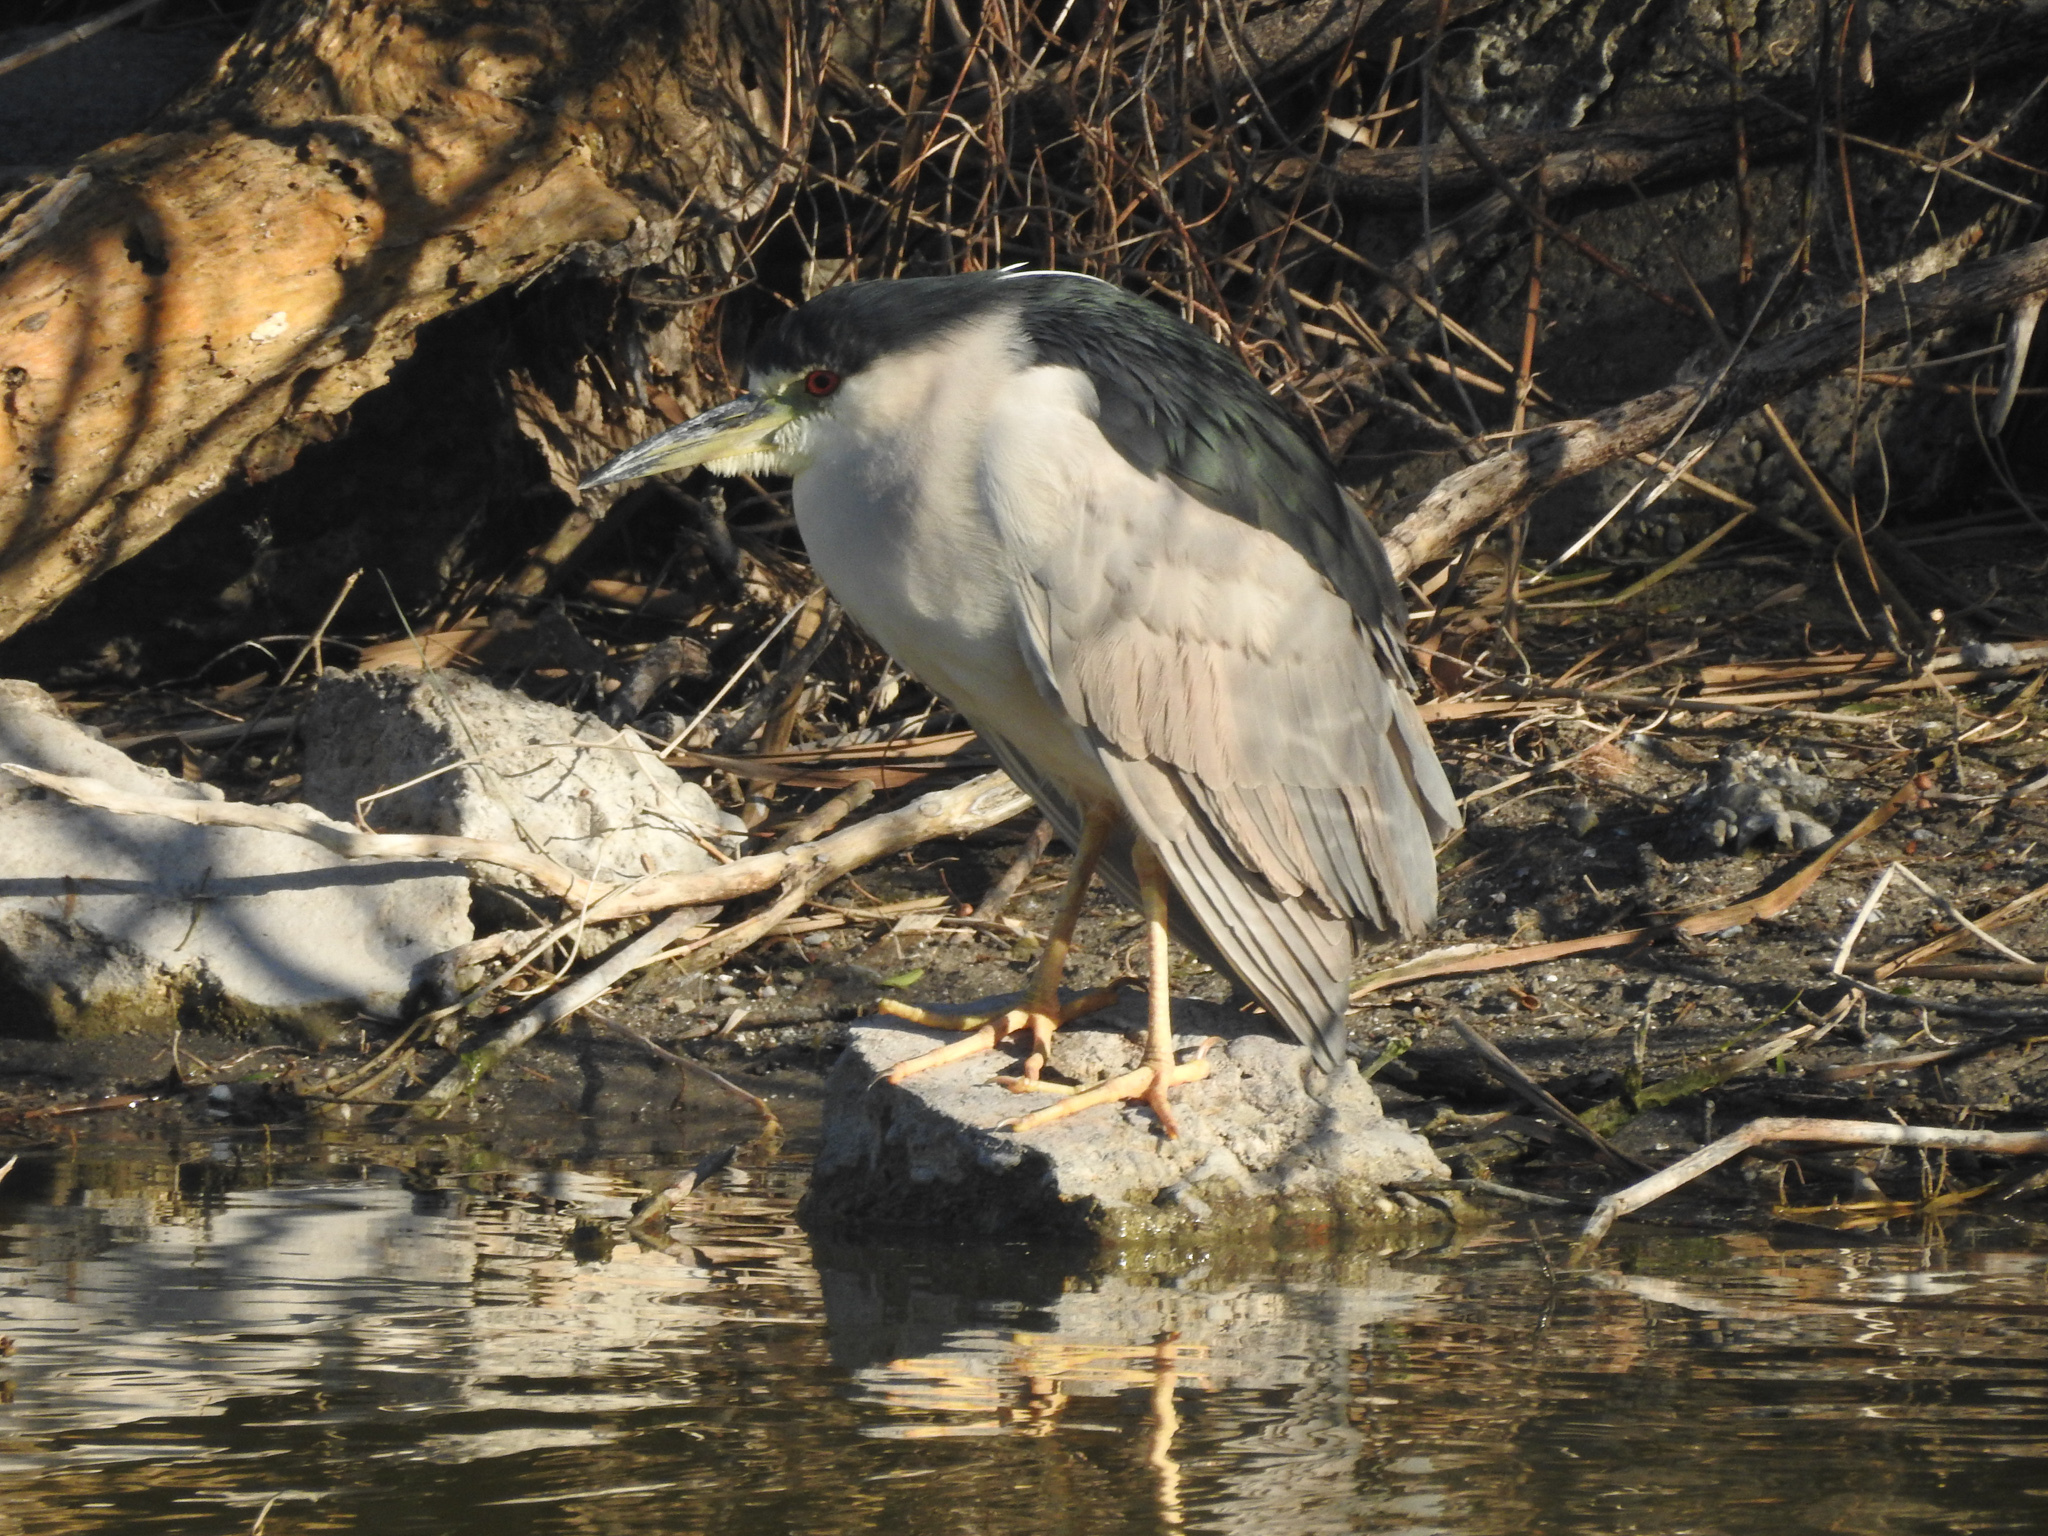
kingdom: Animalia
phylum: Chordata
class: Aves
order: Pelecaniformes
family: Ardeidae
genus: Nycticorax
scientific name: Nycticorax nycticorax
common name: Black-crowned night heron
